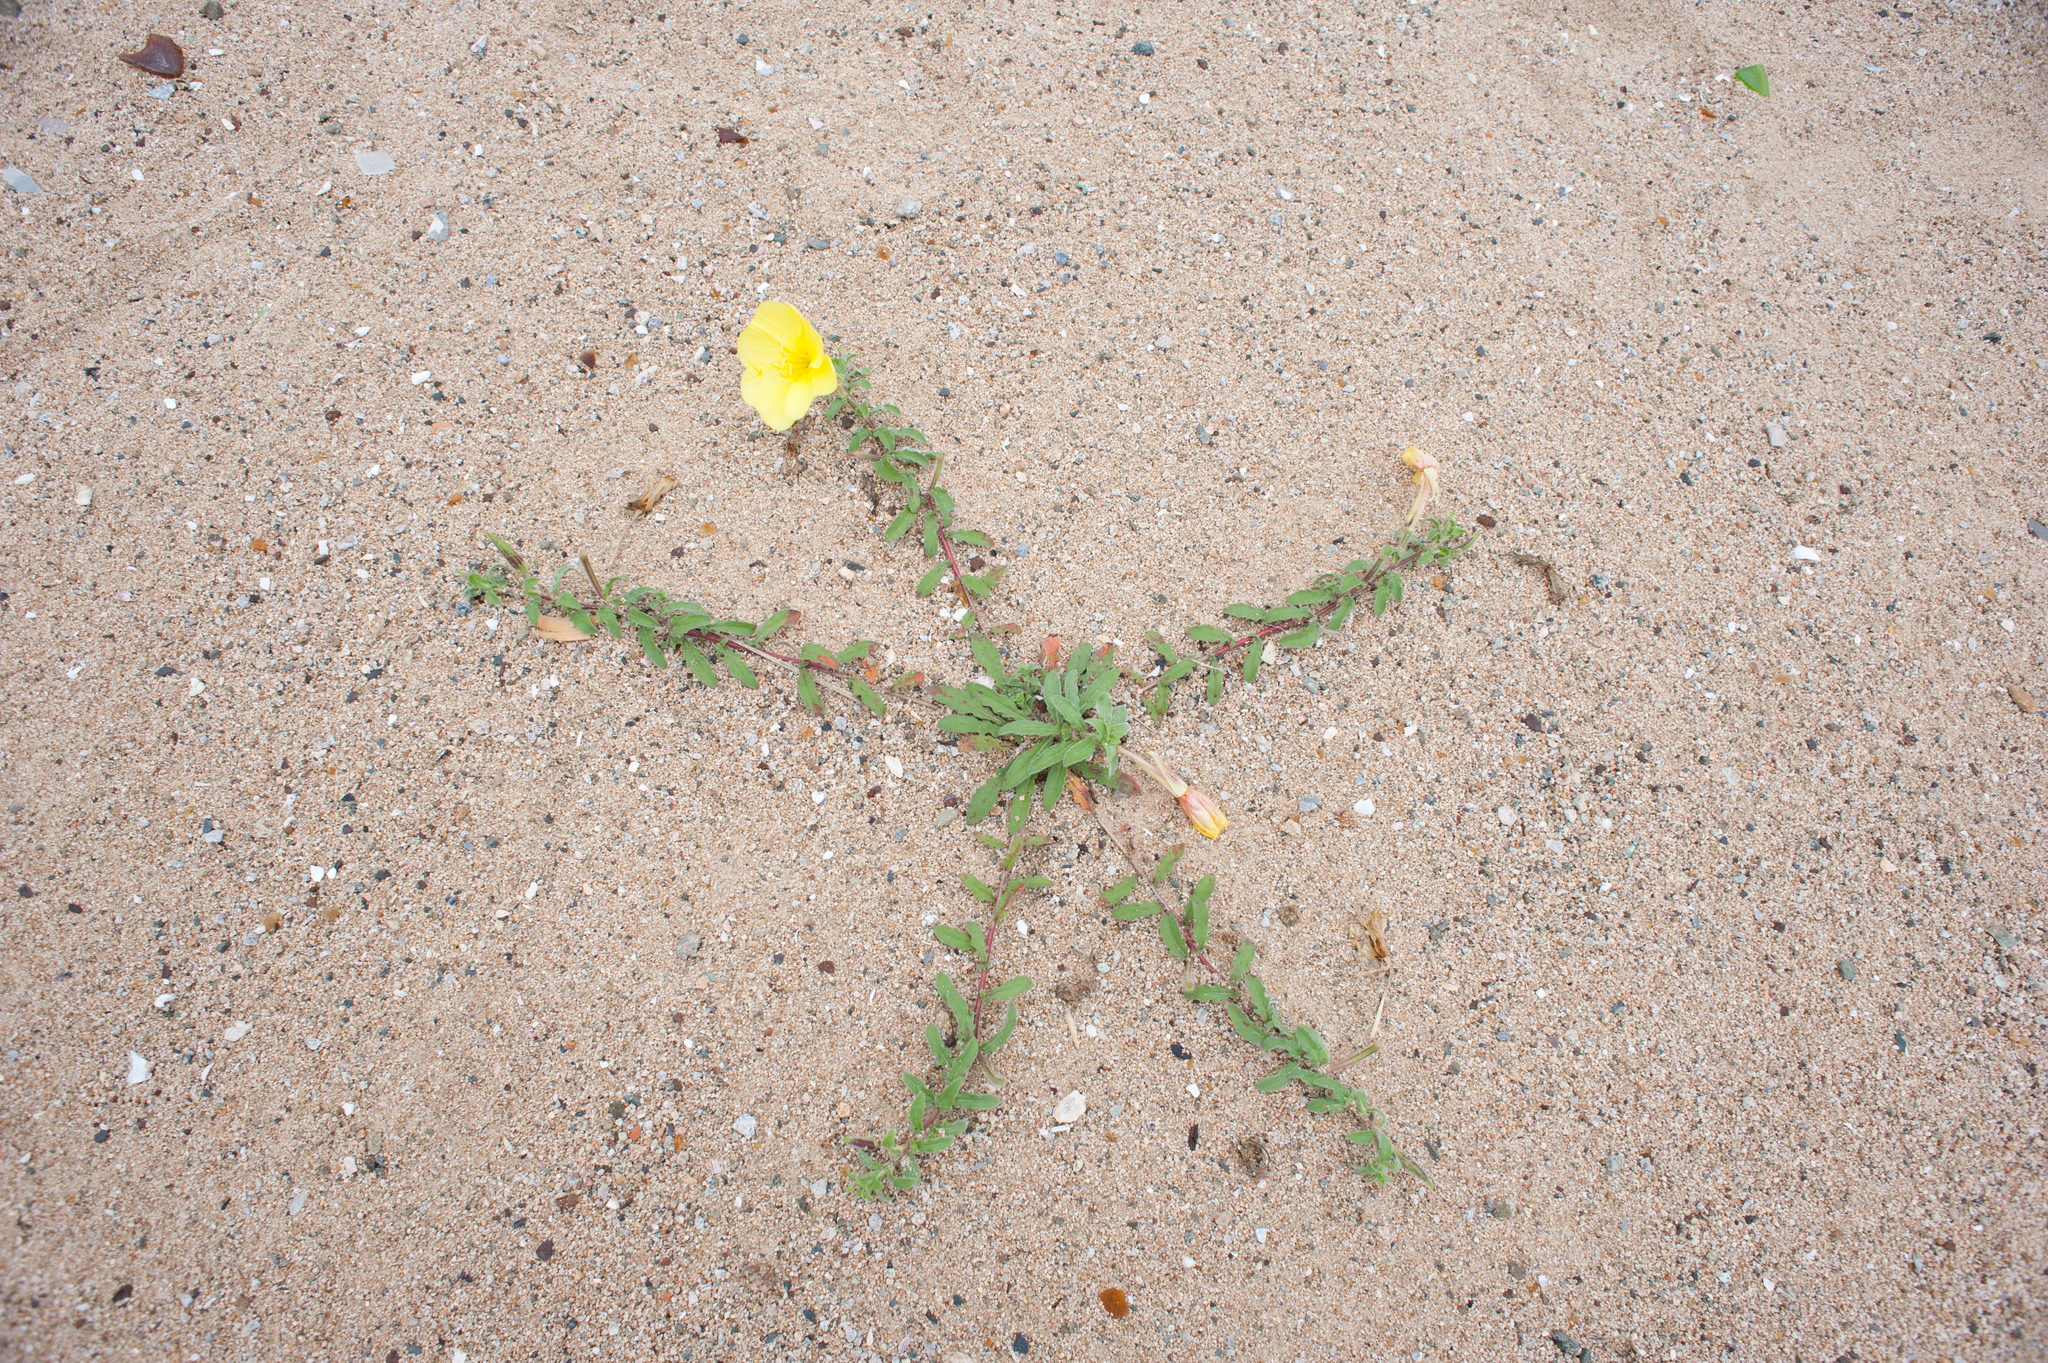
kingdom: Plantae
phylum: Tracheophyta
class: Magnoliopsida
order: Myrtales
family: Onagraceae
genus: Oenothera
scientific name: Oenothera drummondii
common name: Beach evening-primrose
